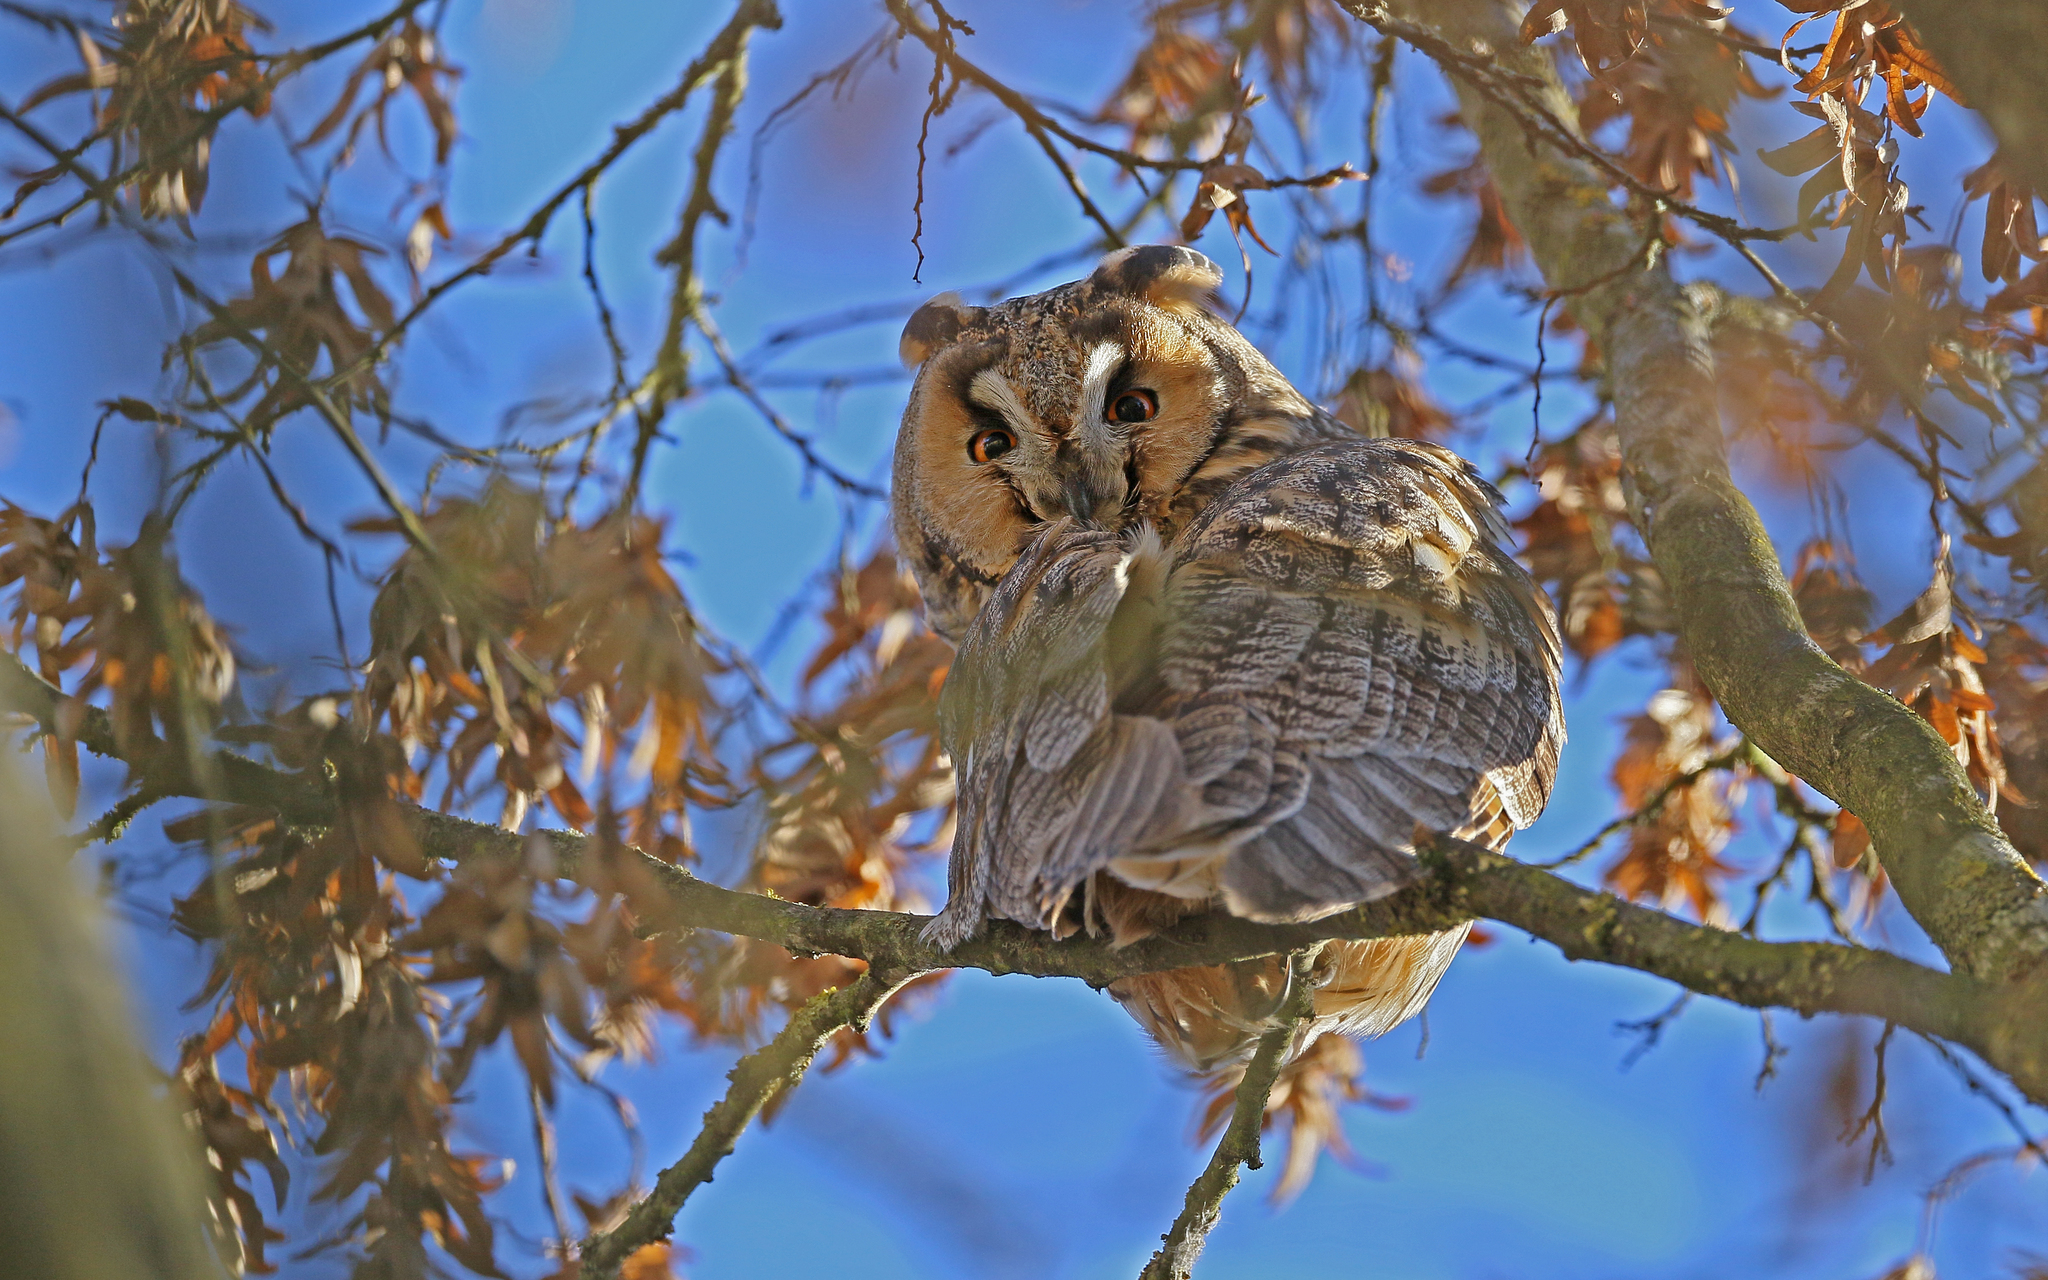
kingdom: Animalia
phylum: Chordata
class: Aves
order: Strigiformes
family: Strigidae
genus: Asio
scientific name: Asio otus
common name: Long-eared owl
